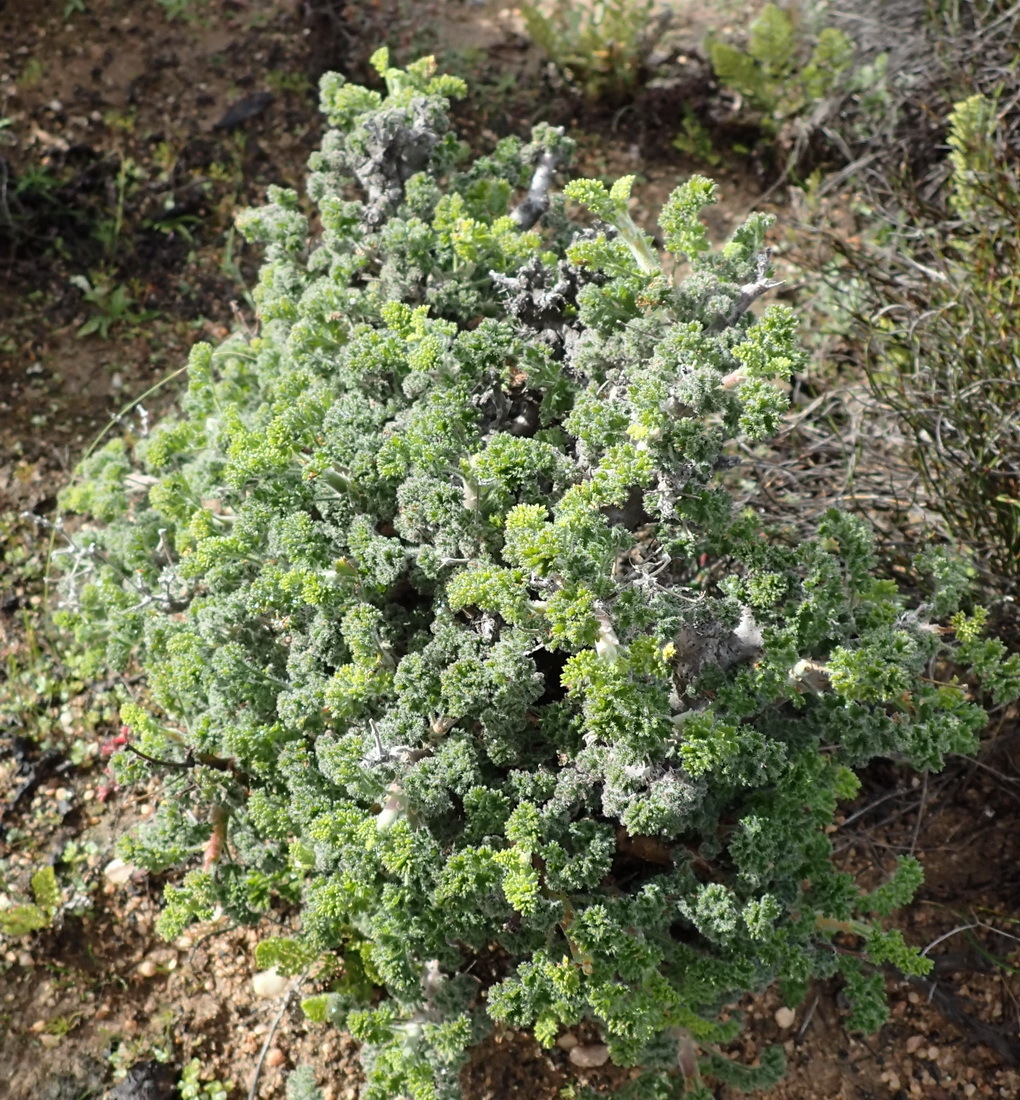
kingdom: Plantae
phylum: Tracheophyta
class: Magnoliopsida
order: Geraniales
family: Geraniaceae
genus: Pelargonium
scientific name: Pelargonium alternans
